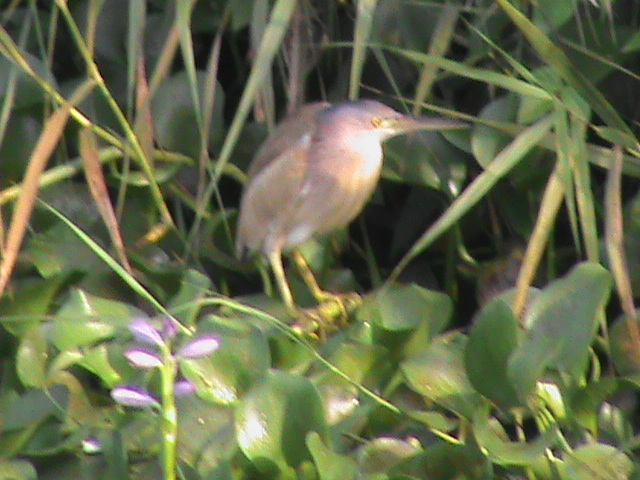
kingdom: Animalia
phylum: Chordata
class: Aves
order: Pelecaniformes
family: Ardeidae
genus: Ixobrychus
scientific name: Ixobrychus sinensis
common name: Yellow bittern
